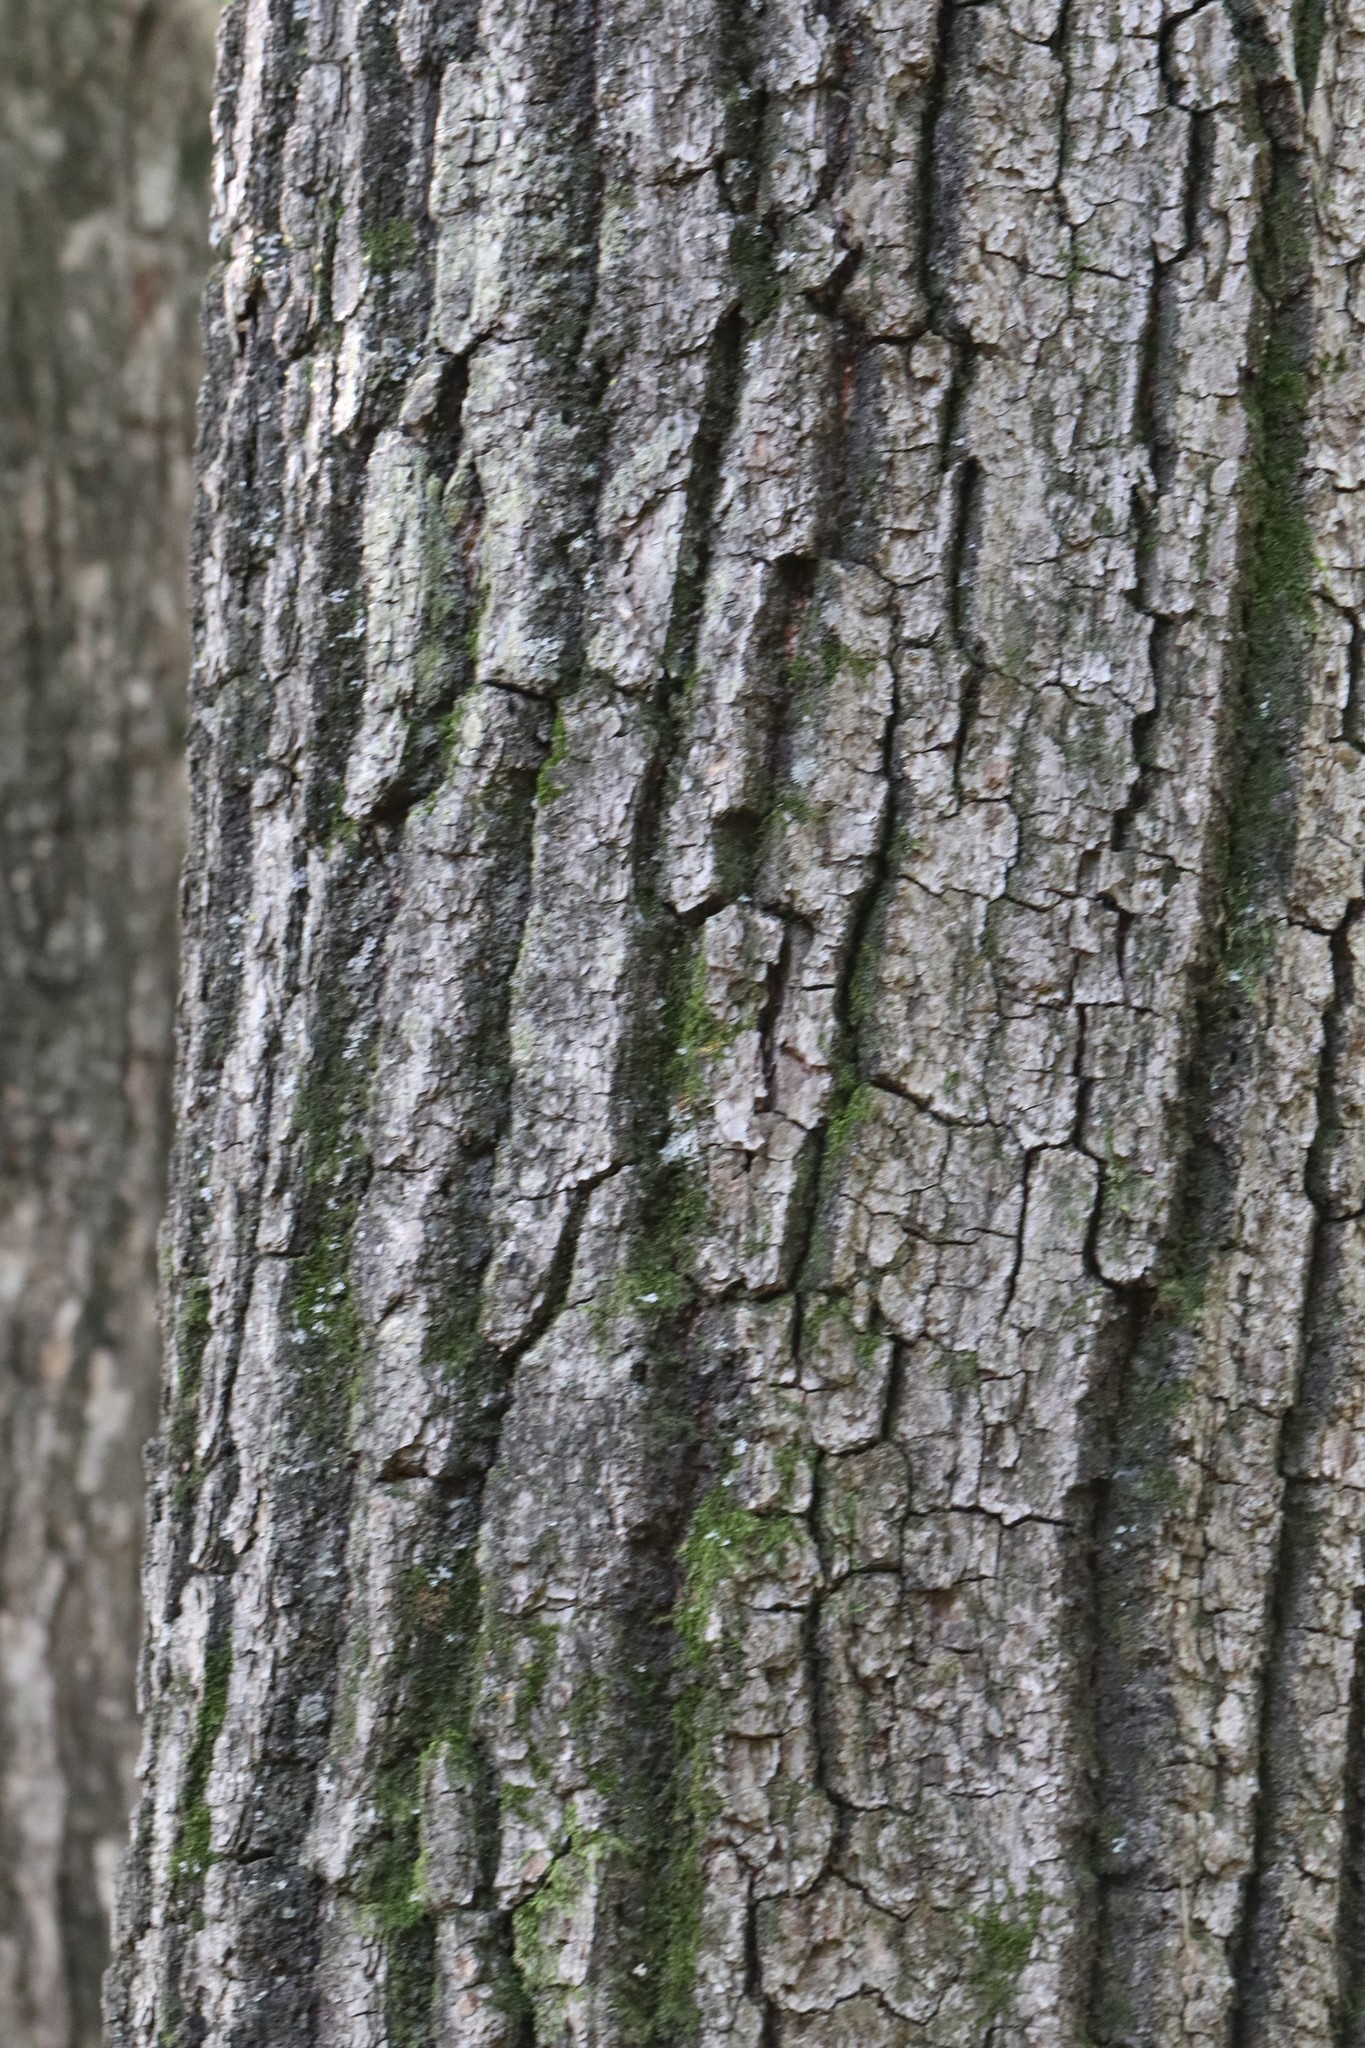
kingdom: Plantae
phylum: Tracheophyta
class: Magnoliopsida
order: Fagales
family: Fagaceae
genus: Quercus
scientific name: Quercus mongolica
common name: Mongolian oak
